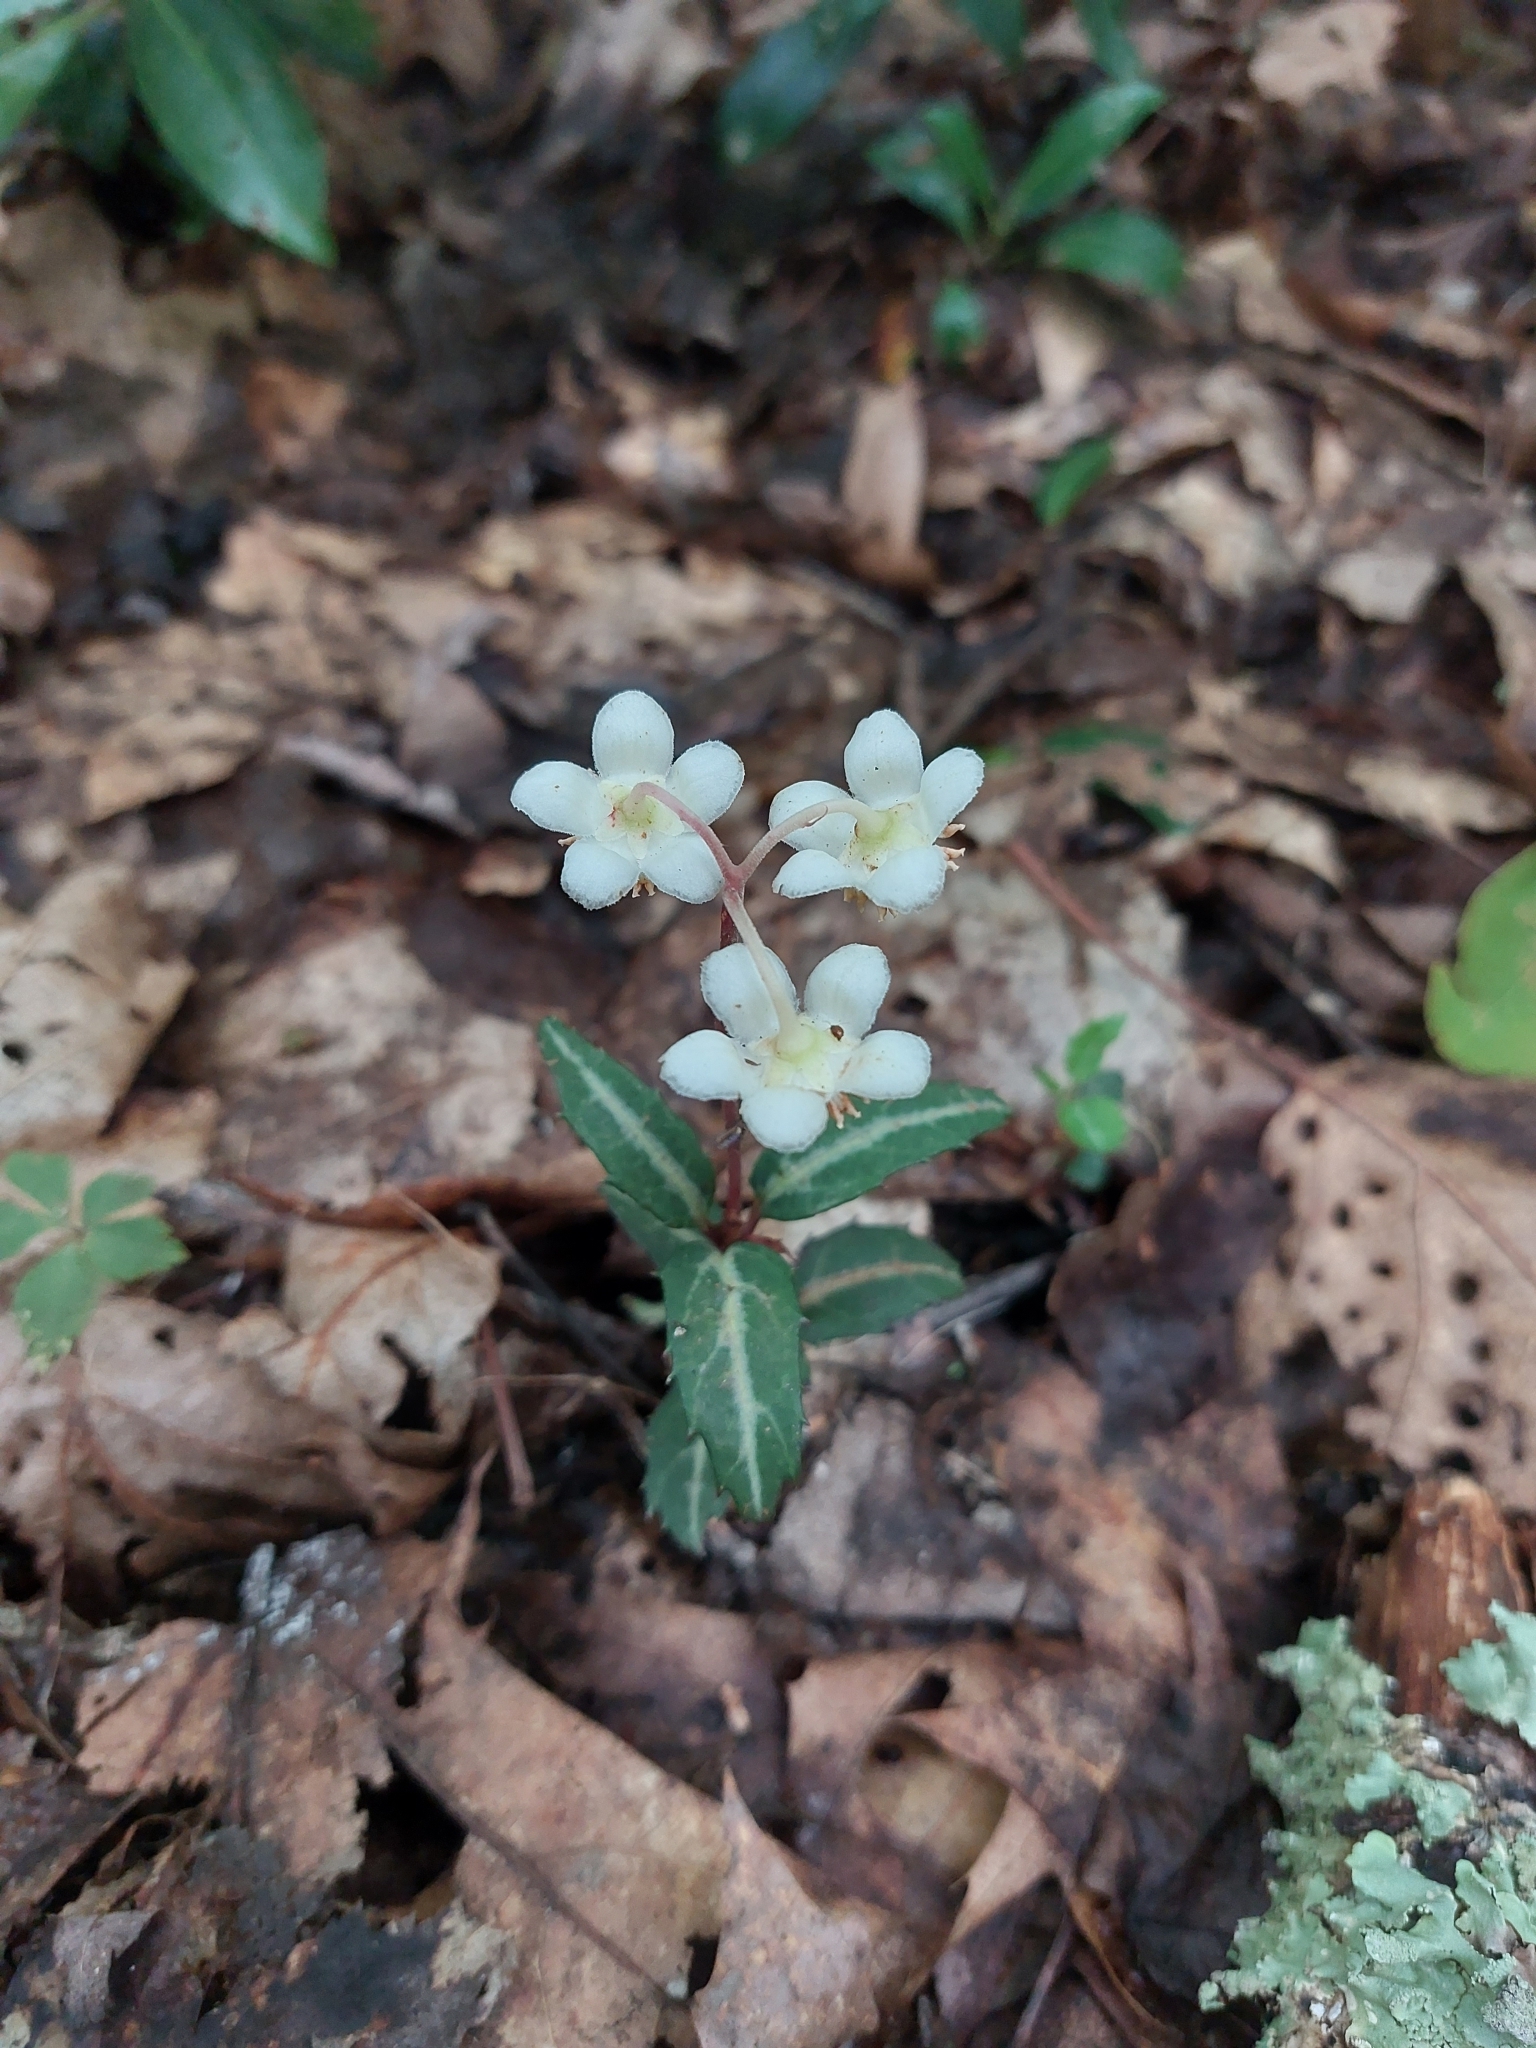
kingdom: Plantae
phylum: Tracheophyta
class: Magnoliopsida
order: Ericales
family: Ericaceae
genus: Chimaphila
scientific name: Chimaphila maculata
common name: Spotted pipsissewa
